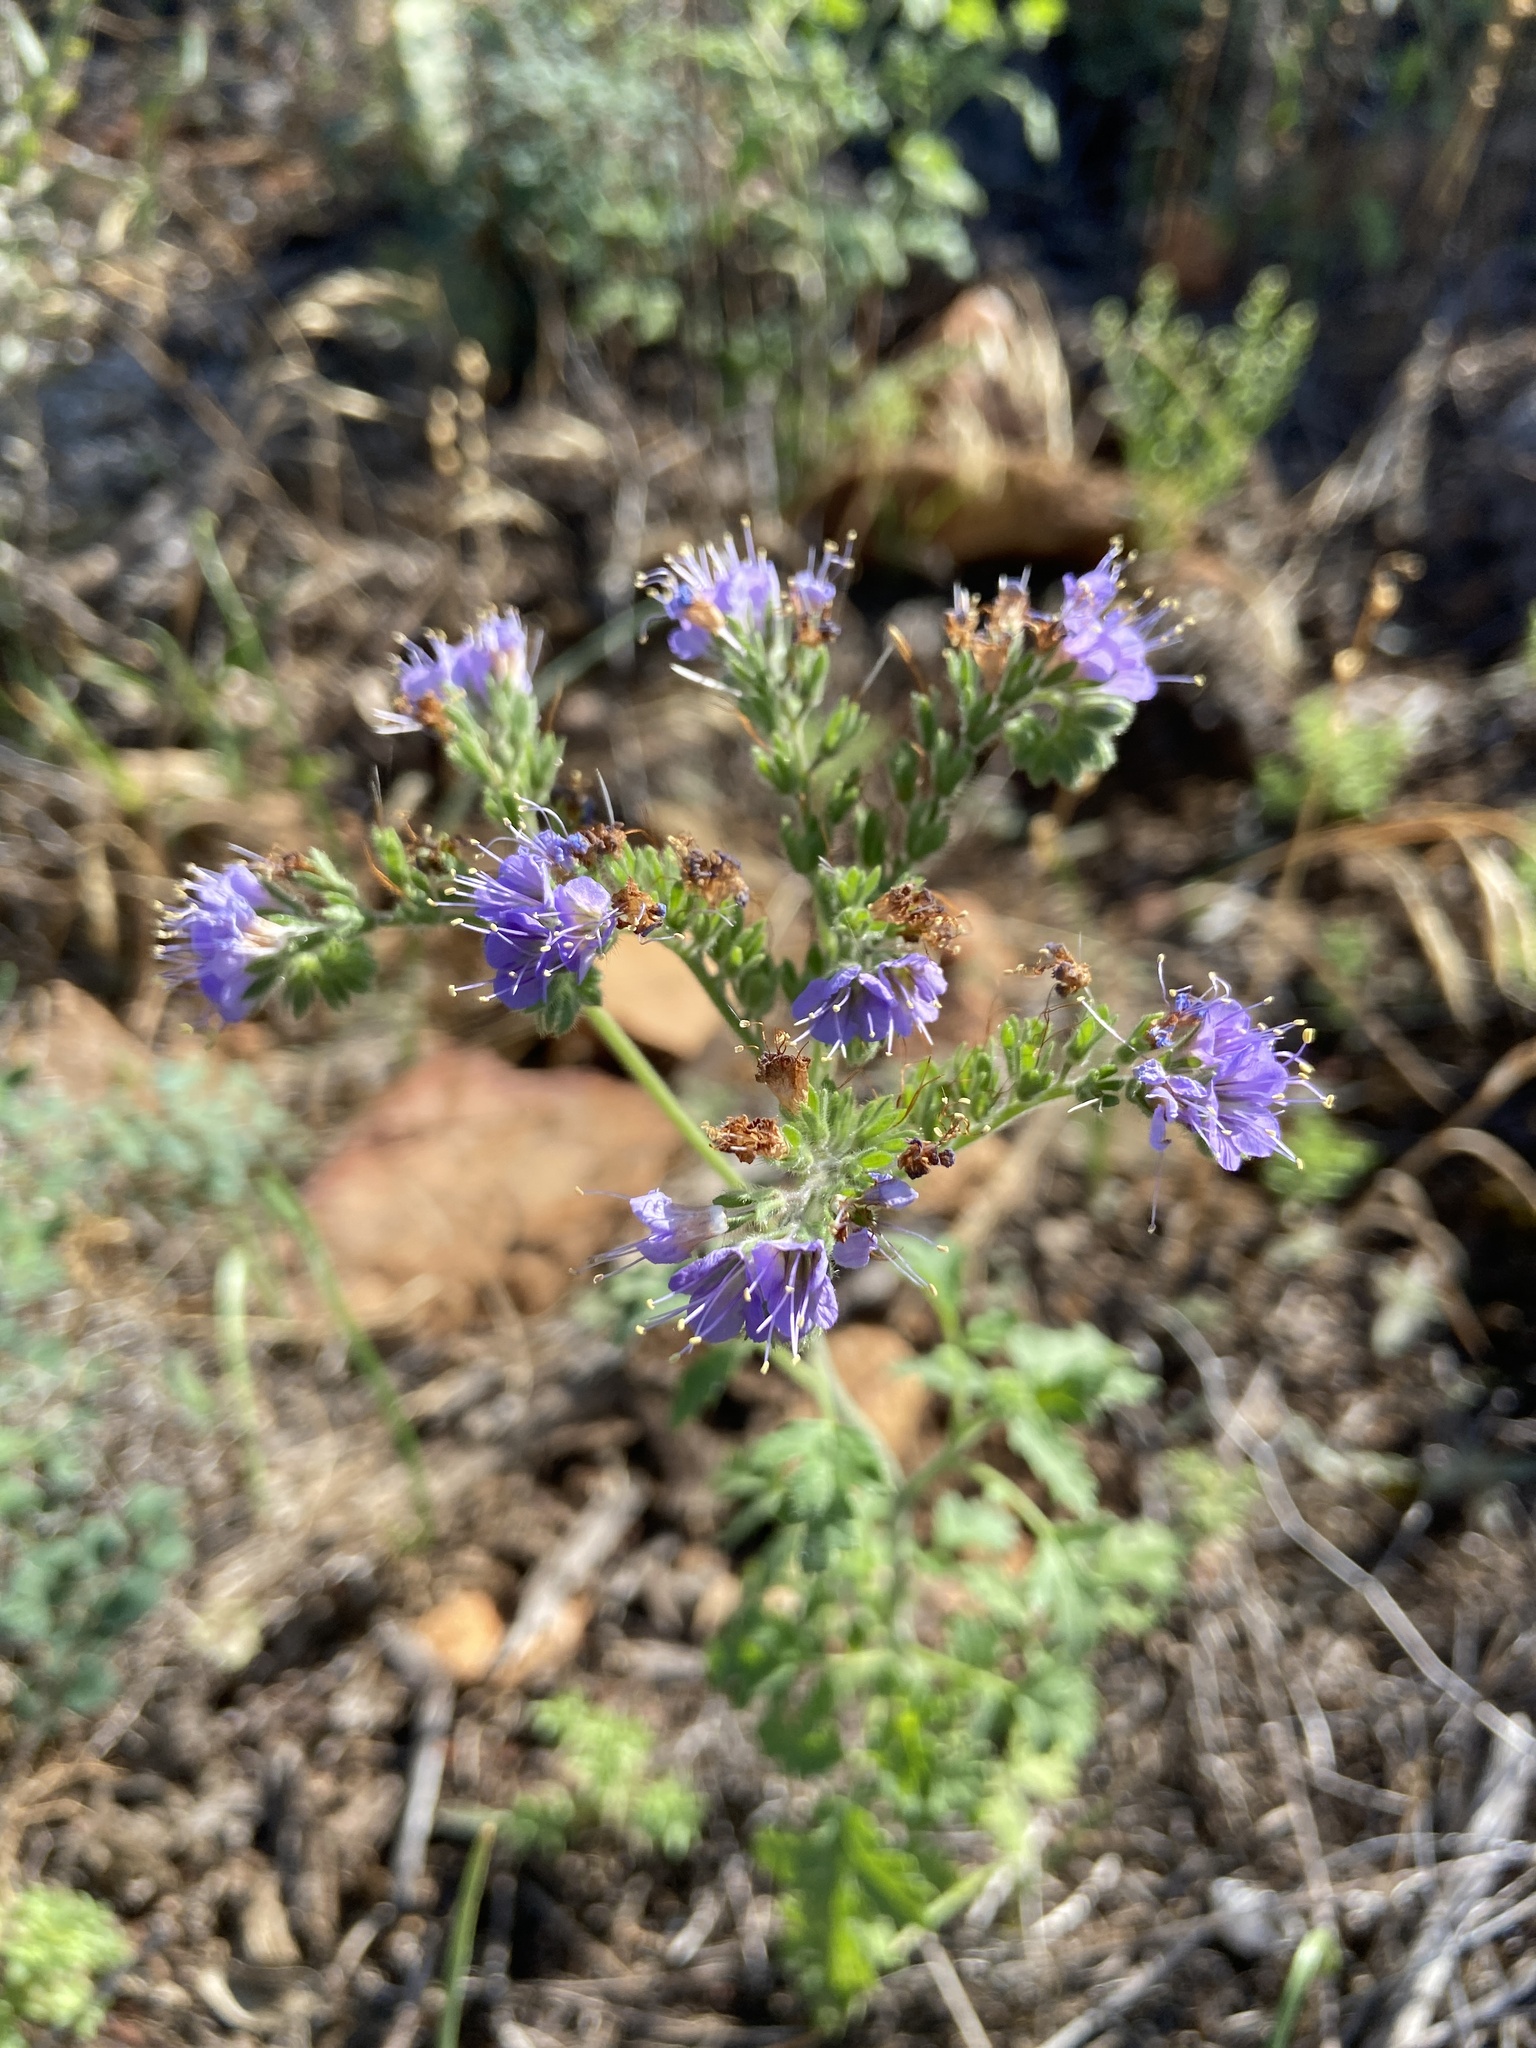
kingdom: Plantae
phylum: Tracheophyta
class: Magnoliopsida
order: Boraginales
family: Hydrophyllaceae
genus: Phacelia
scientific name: Phacelia congesta
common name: Blue curls
